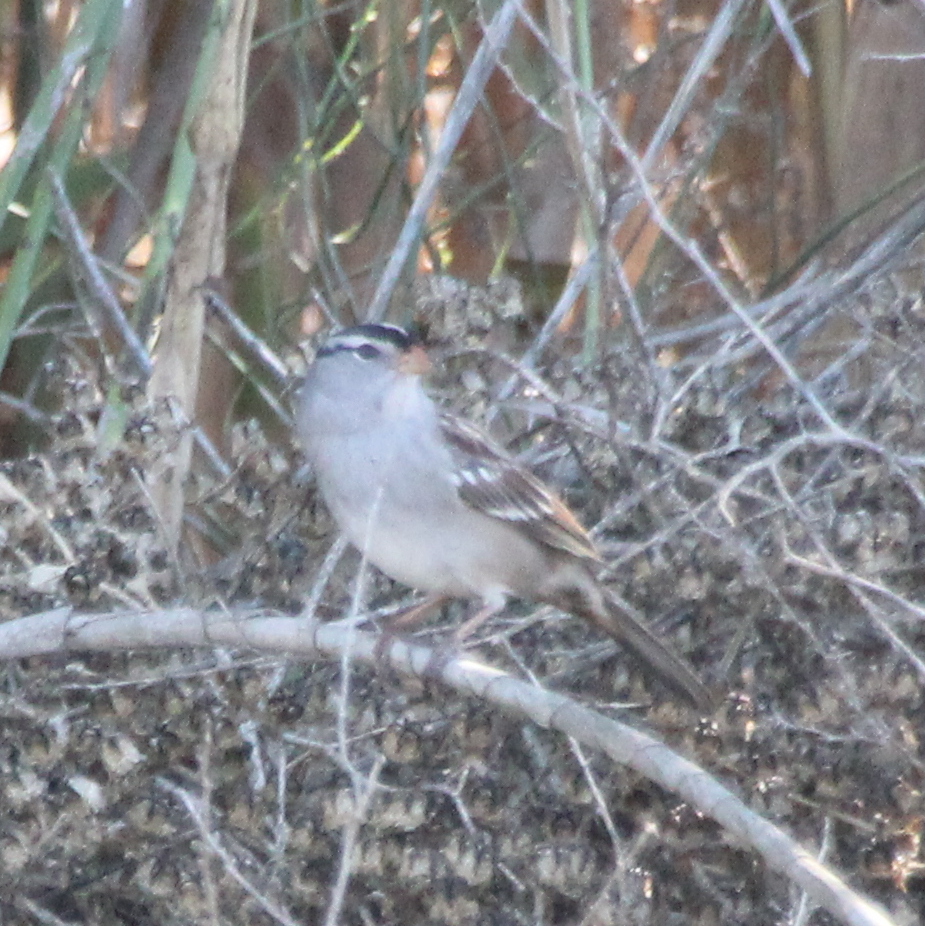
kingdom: Animalia
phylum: Chordata
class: Aves
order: Passeriformes
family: Passerellidae
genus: Zonotrichia
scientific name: Zonotrichia leucophrys
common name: White-crowned sparrow
